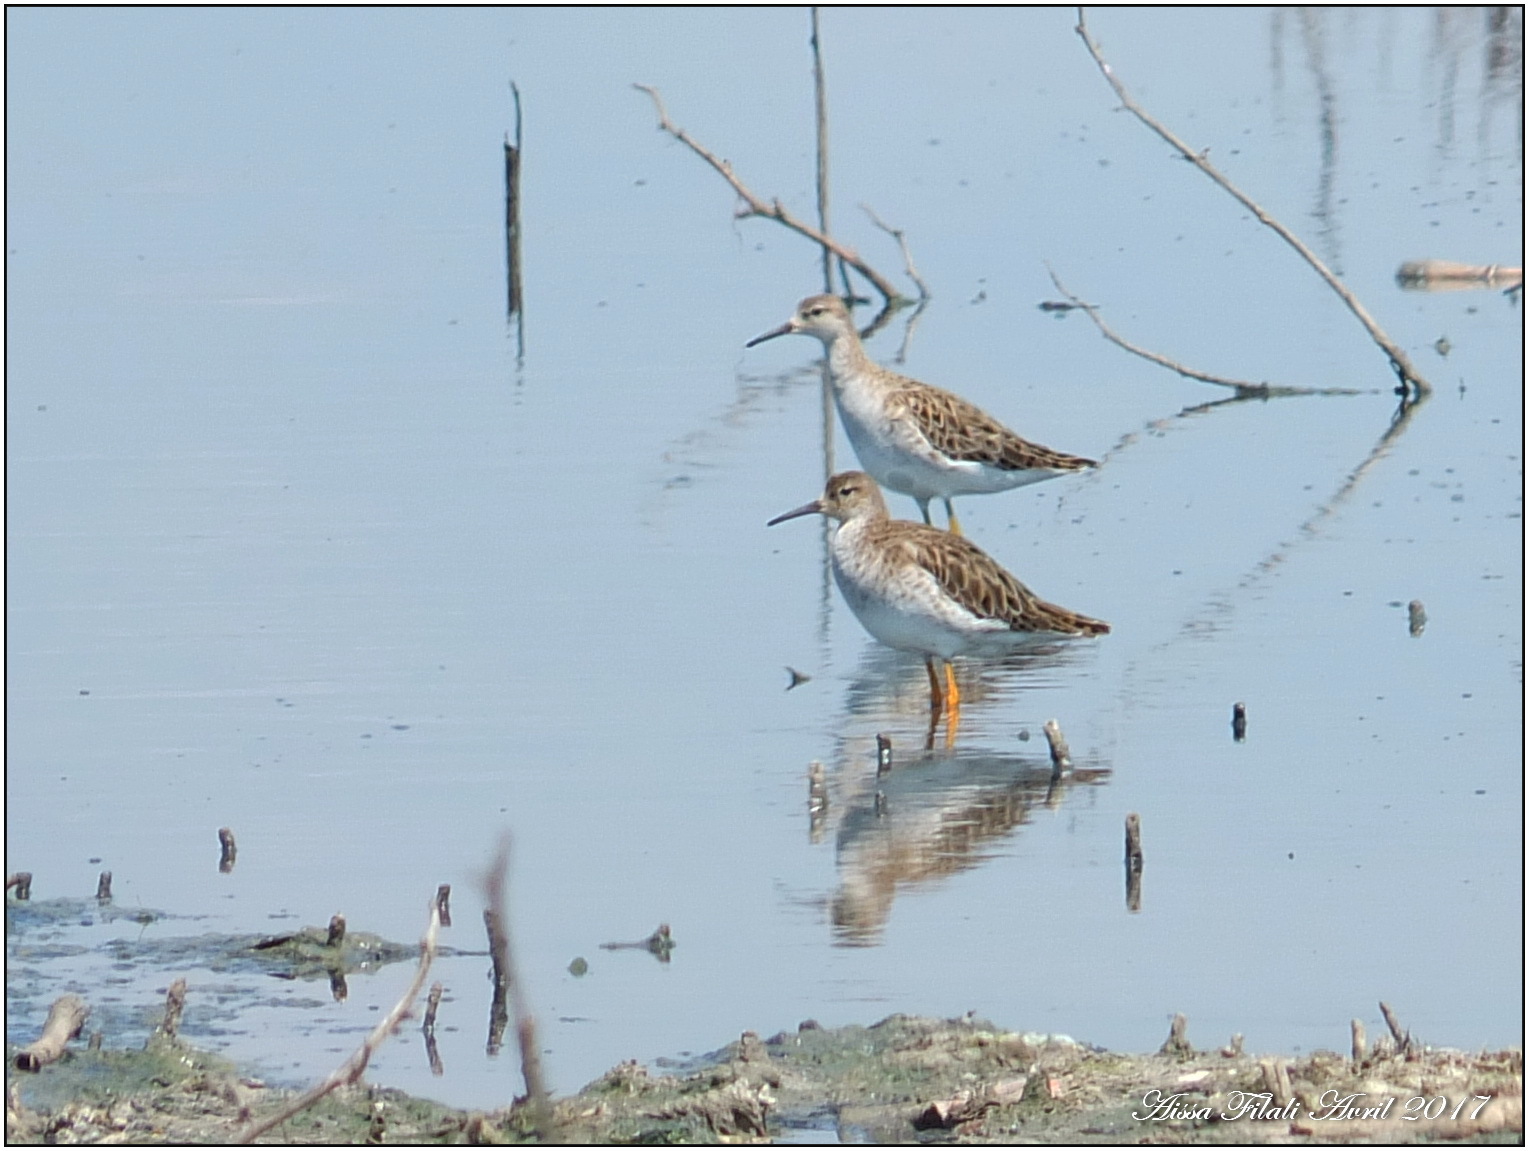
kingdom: Animalia
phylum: Chordata
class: Aves
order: Charadriiformes
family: Scolopacidae
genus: Calidris
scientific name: Calidris pugnax
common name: Ruff
